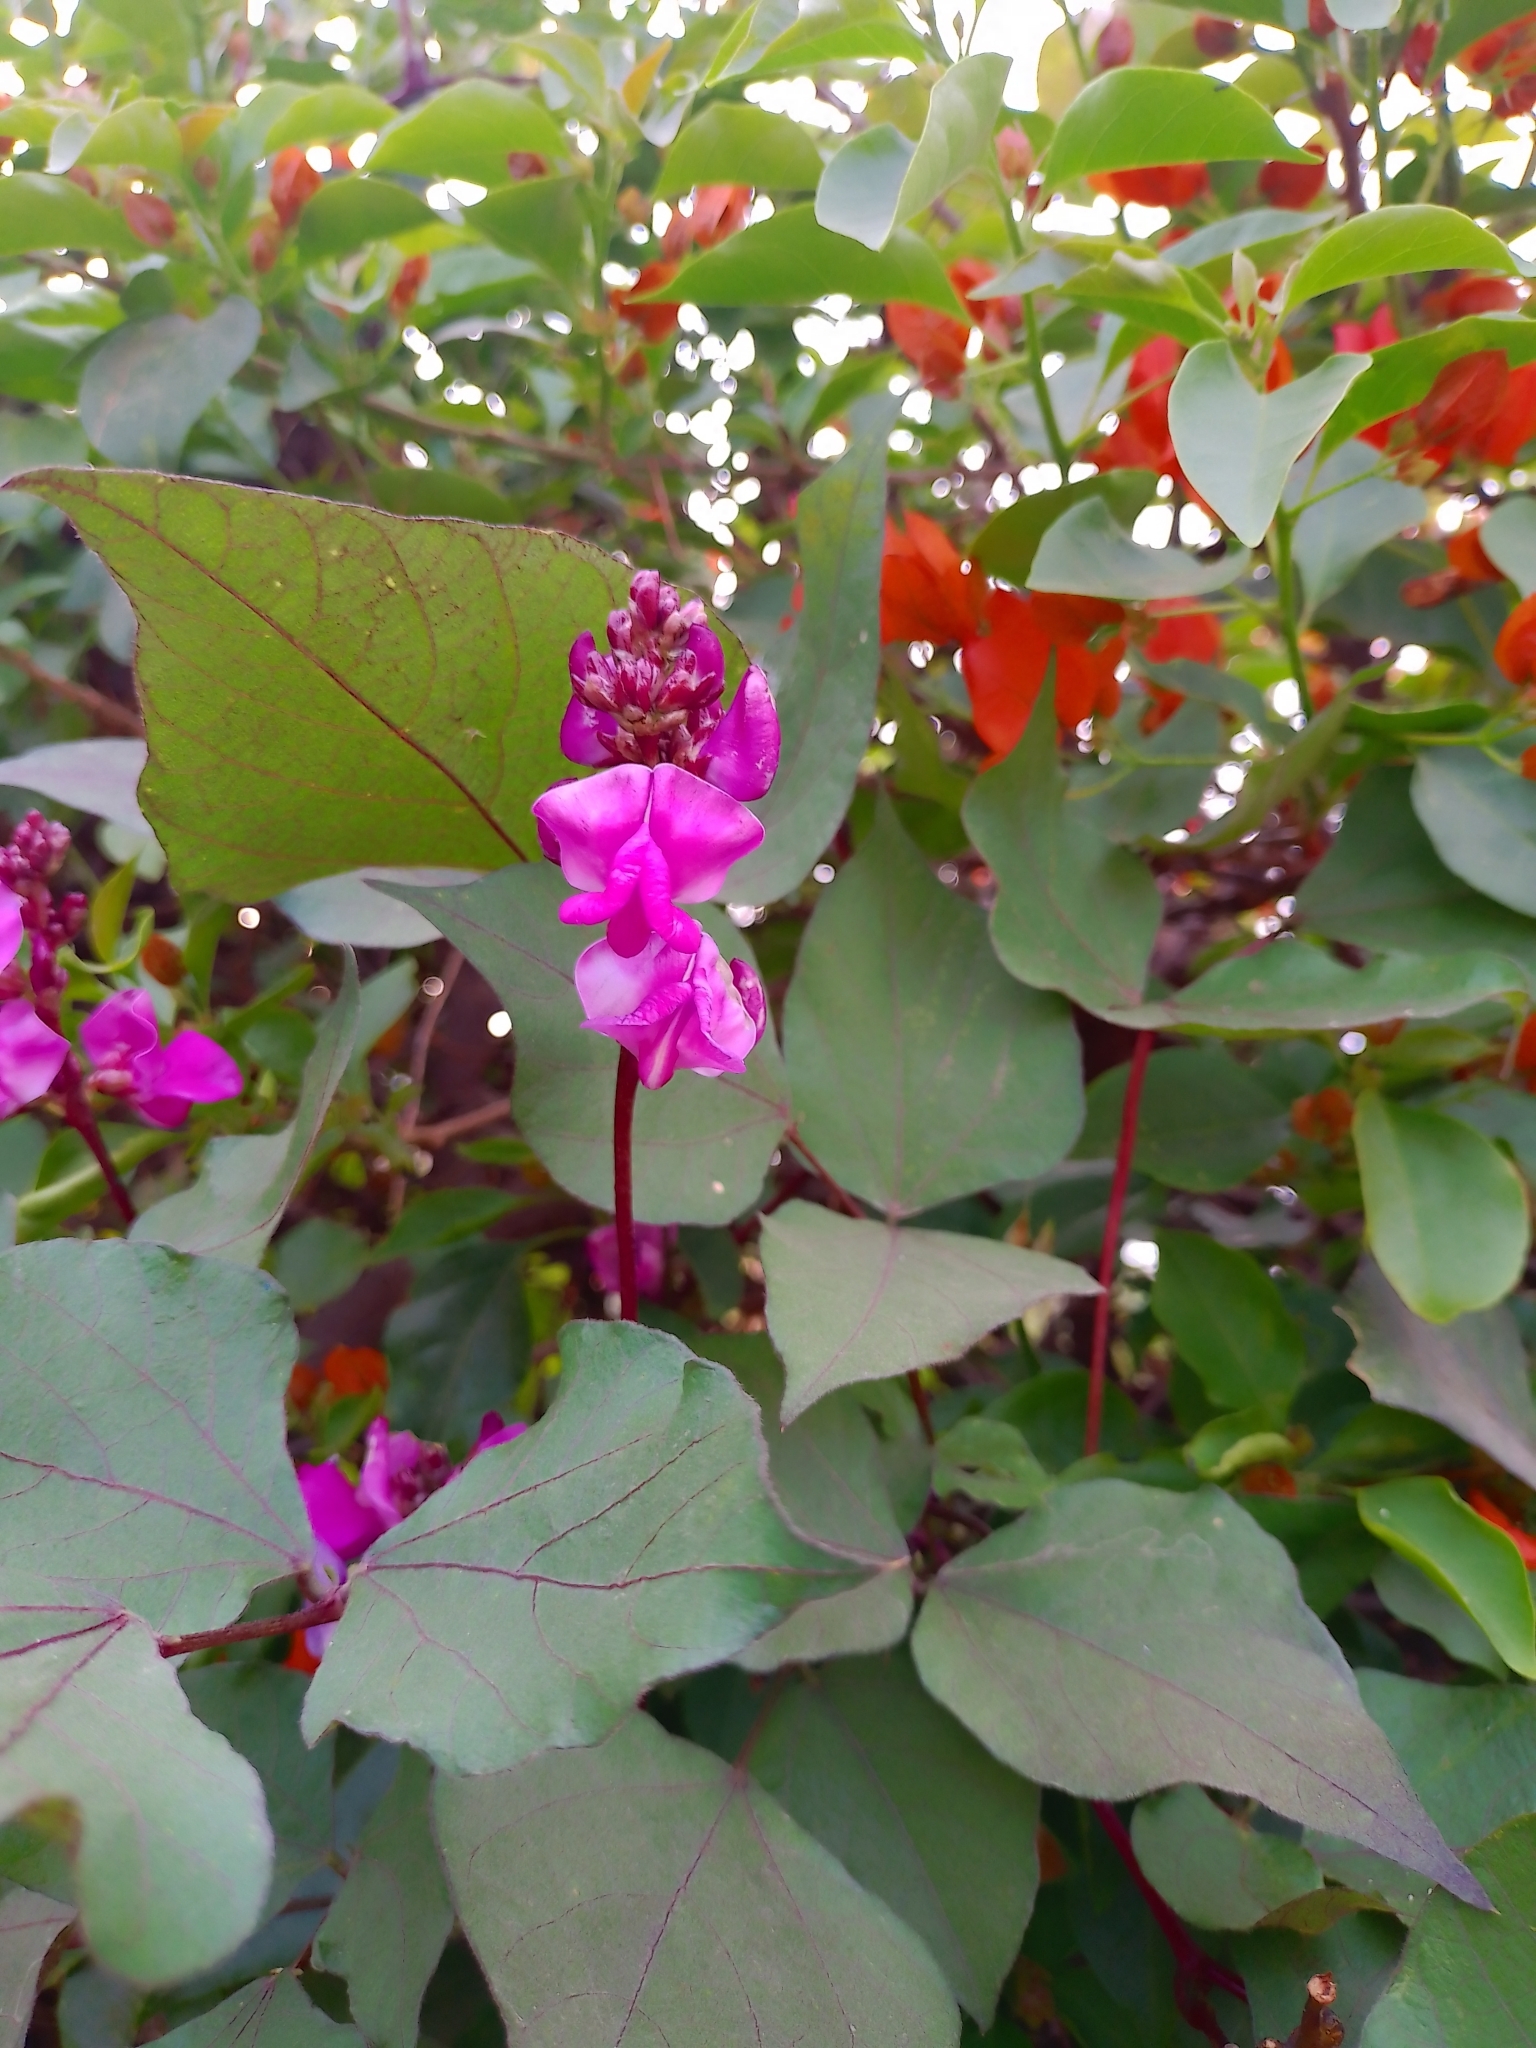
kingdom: Plantae
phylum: Tracheophyta
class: Magnoliopsida
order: Fabales
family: Fabaceae
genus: Lablab
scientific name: Lablab purpureus
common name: Lablab-bean
